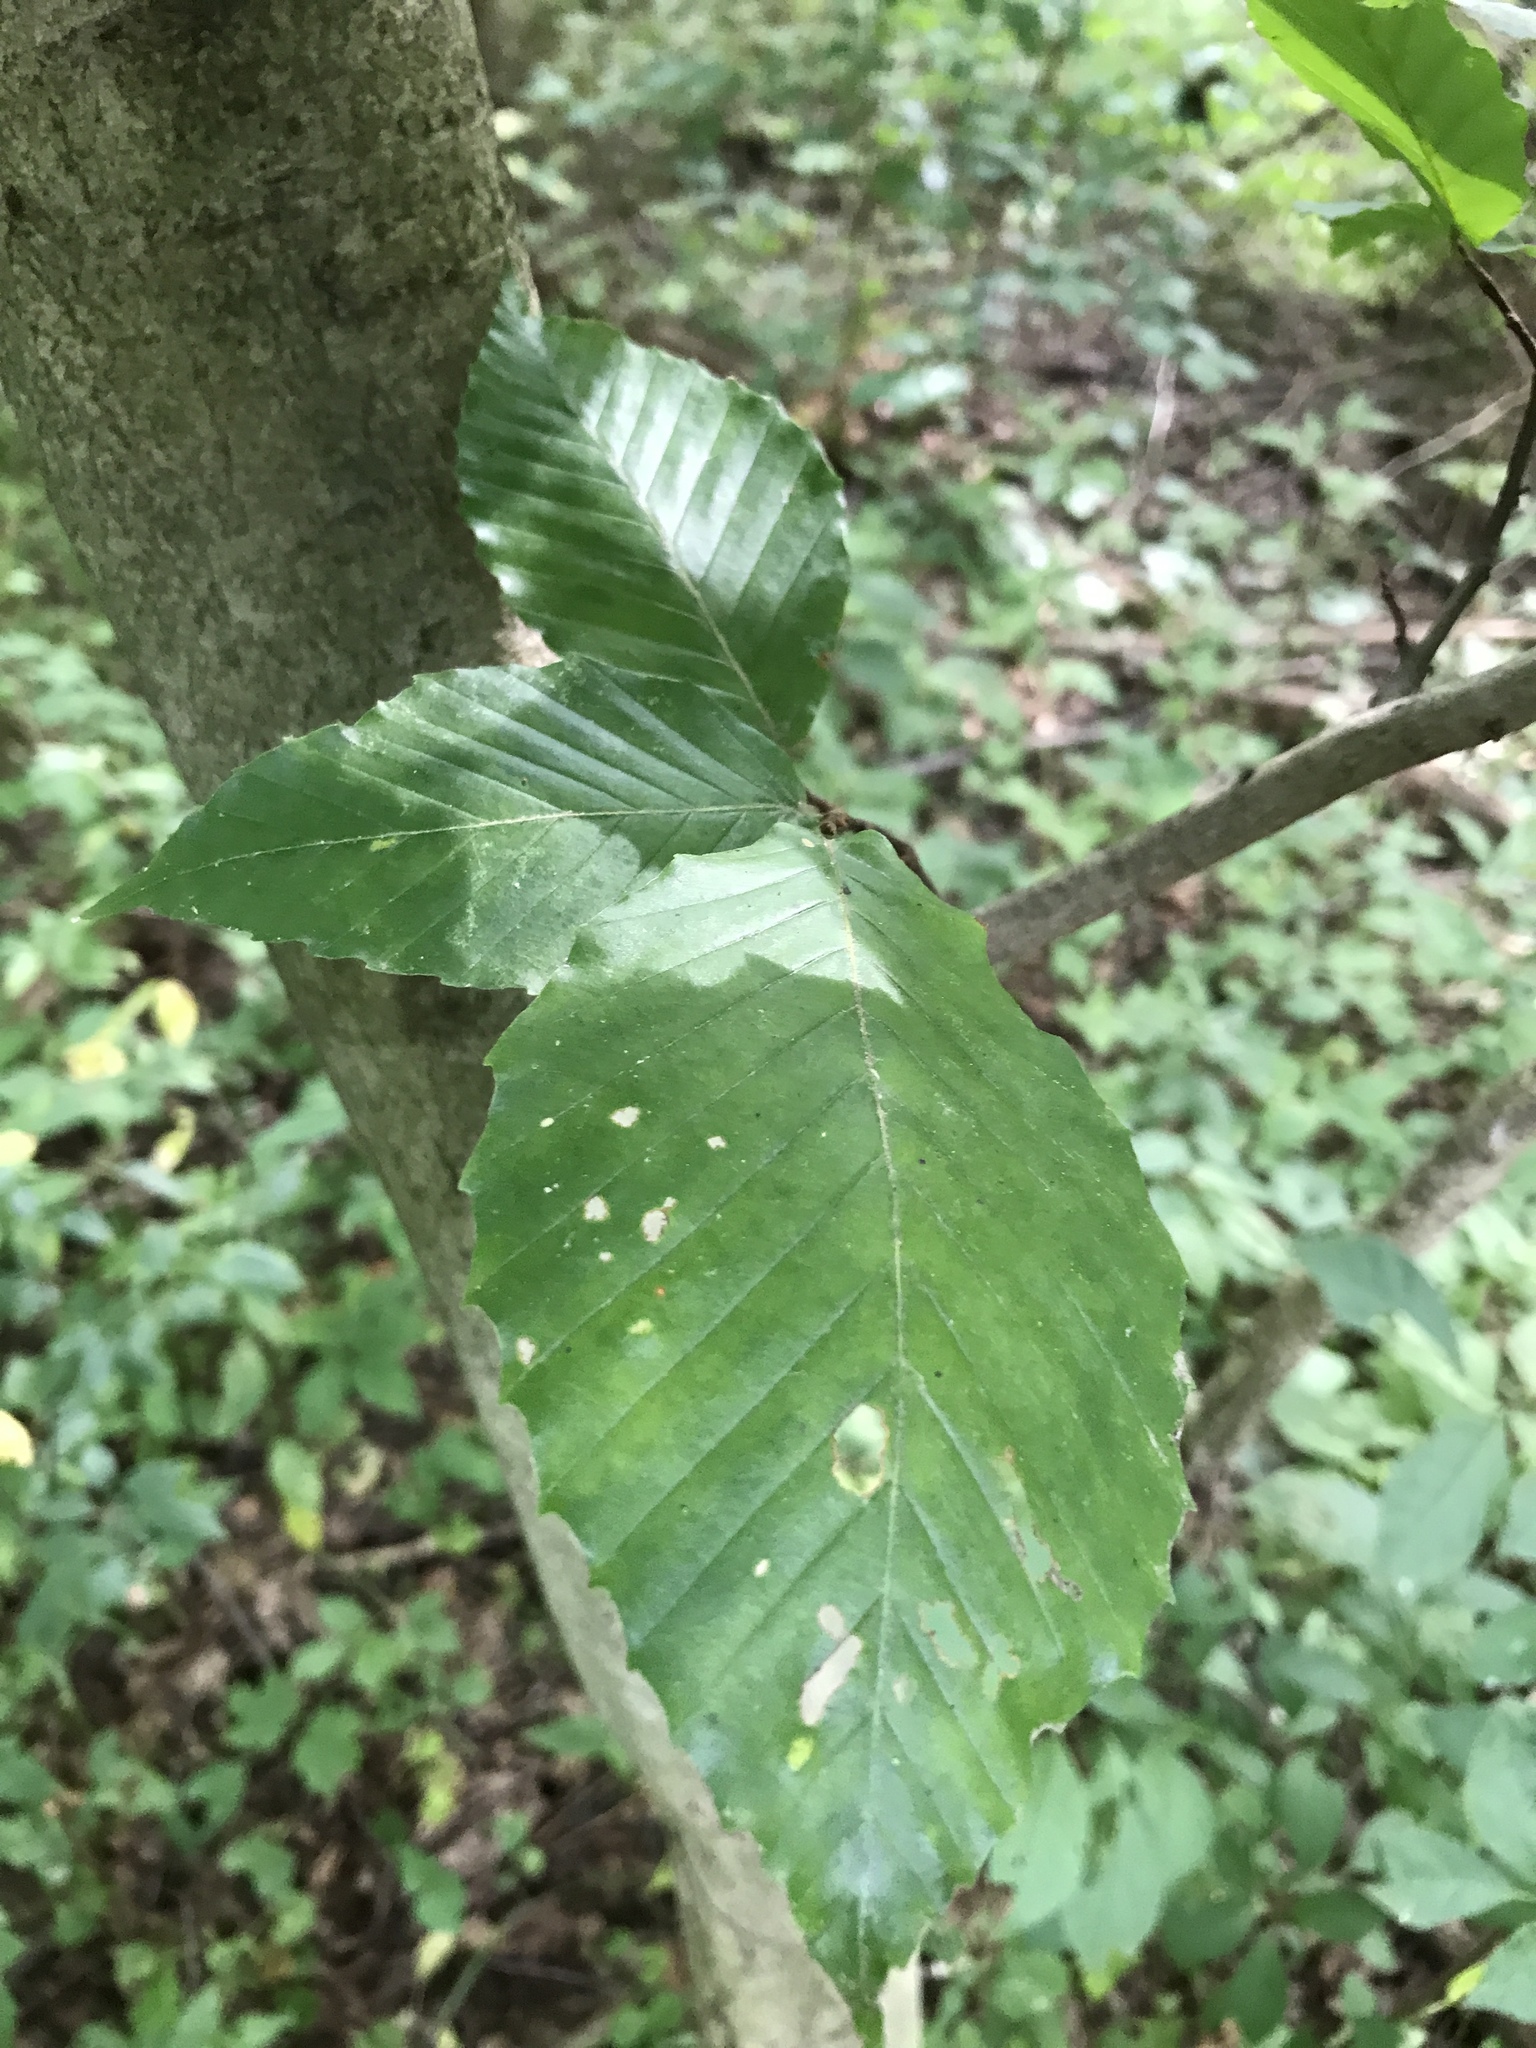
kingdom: Plantae
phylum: Tracheophyta
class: Magnoliopsida
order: Fagales
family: Fagaceae
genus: Fagus
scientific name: Fagus grandifolia
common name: American beech
